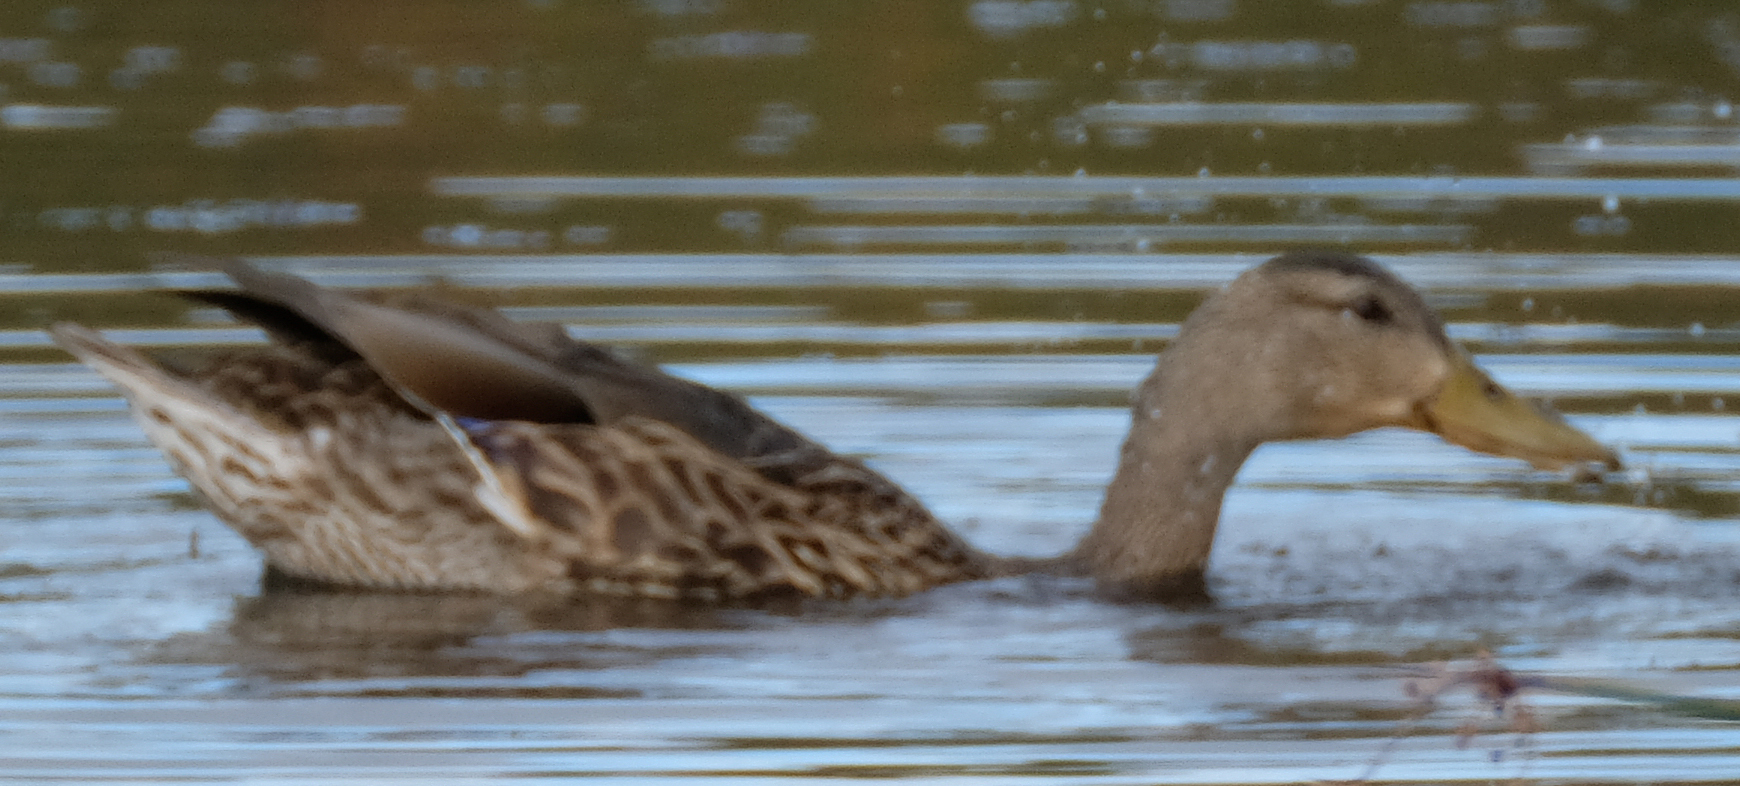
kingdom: Animalia
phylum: Chordata
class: Aves
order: Anseriformes
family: Anatidae
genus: Anas
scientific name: Anas platyrhynchos
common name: Mallard
